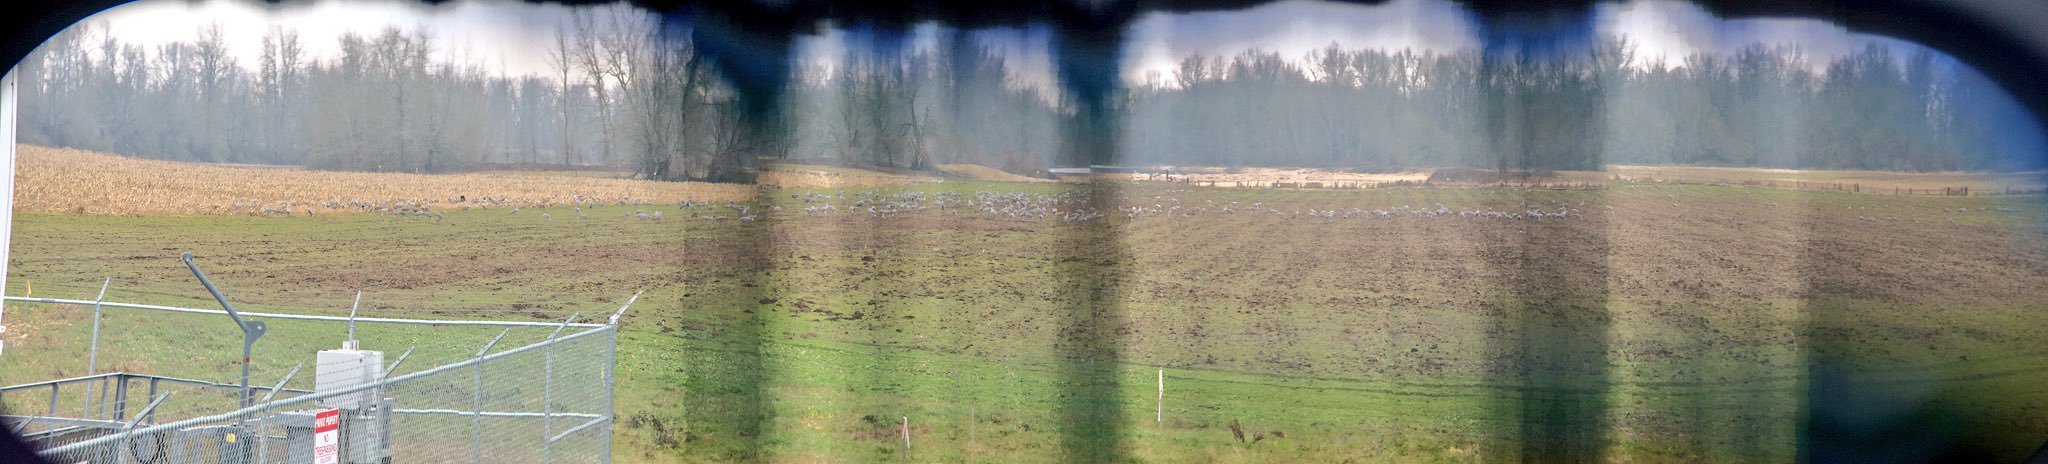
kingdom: Animalia
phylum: Chordata
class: Aves
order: Gruiformes
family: Gruidae
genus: Grus
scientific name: Grus canadensis
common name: Sandhill crane
